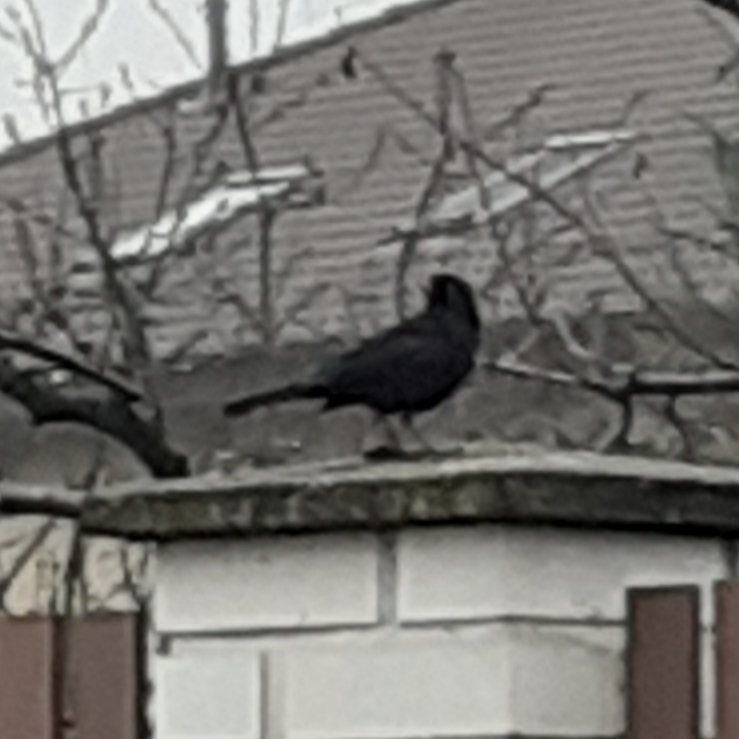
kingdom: Animalia
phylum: Chordata
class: Aves
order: Passeriformes
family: Turdidae
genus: Turdus
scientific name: Turdus merula
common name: Common blackbird
